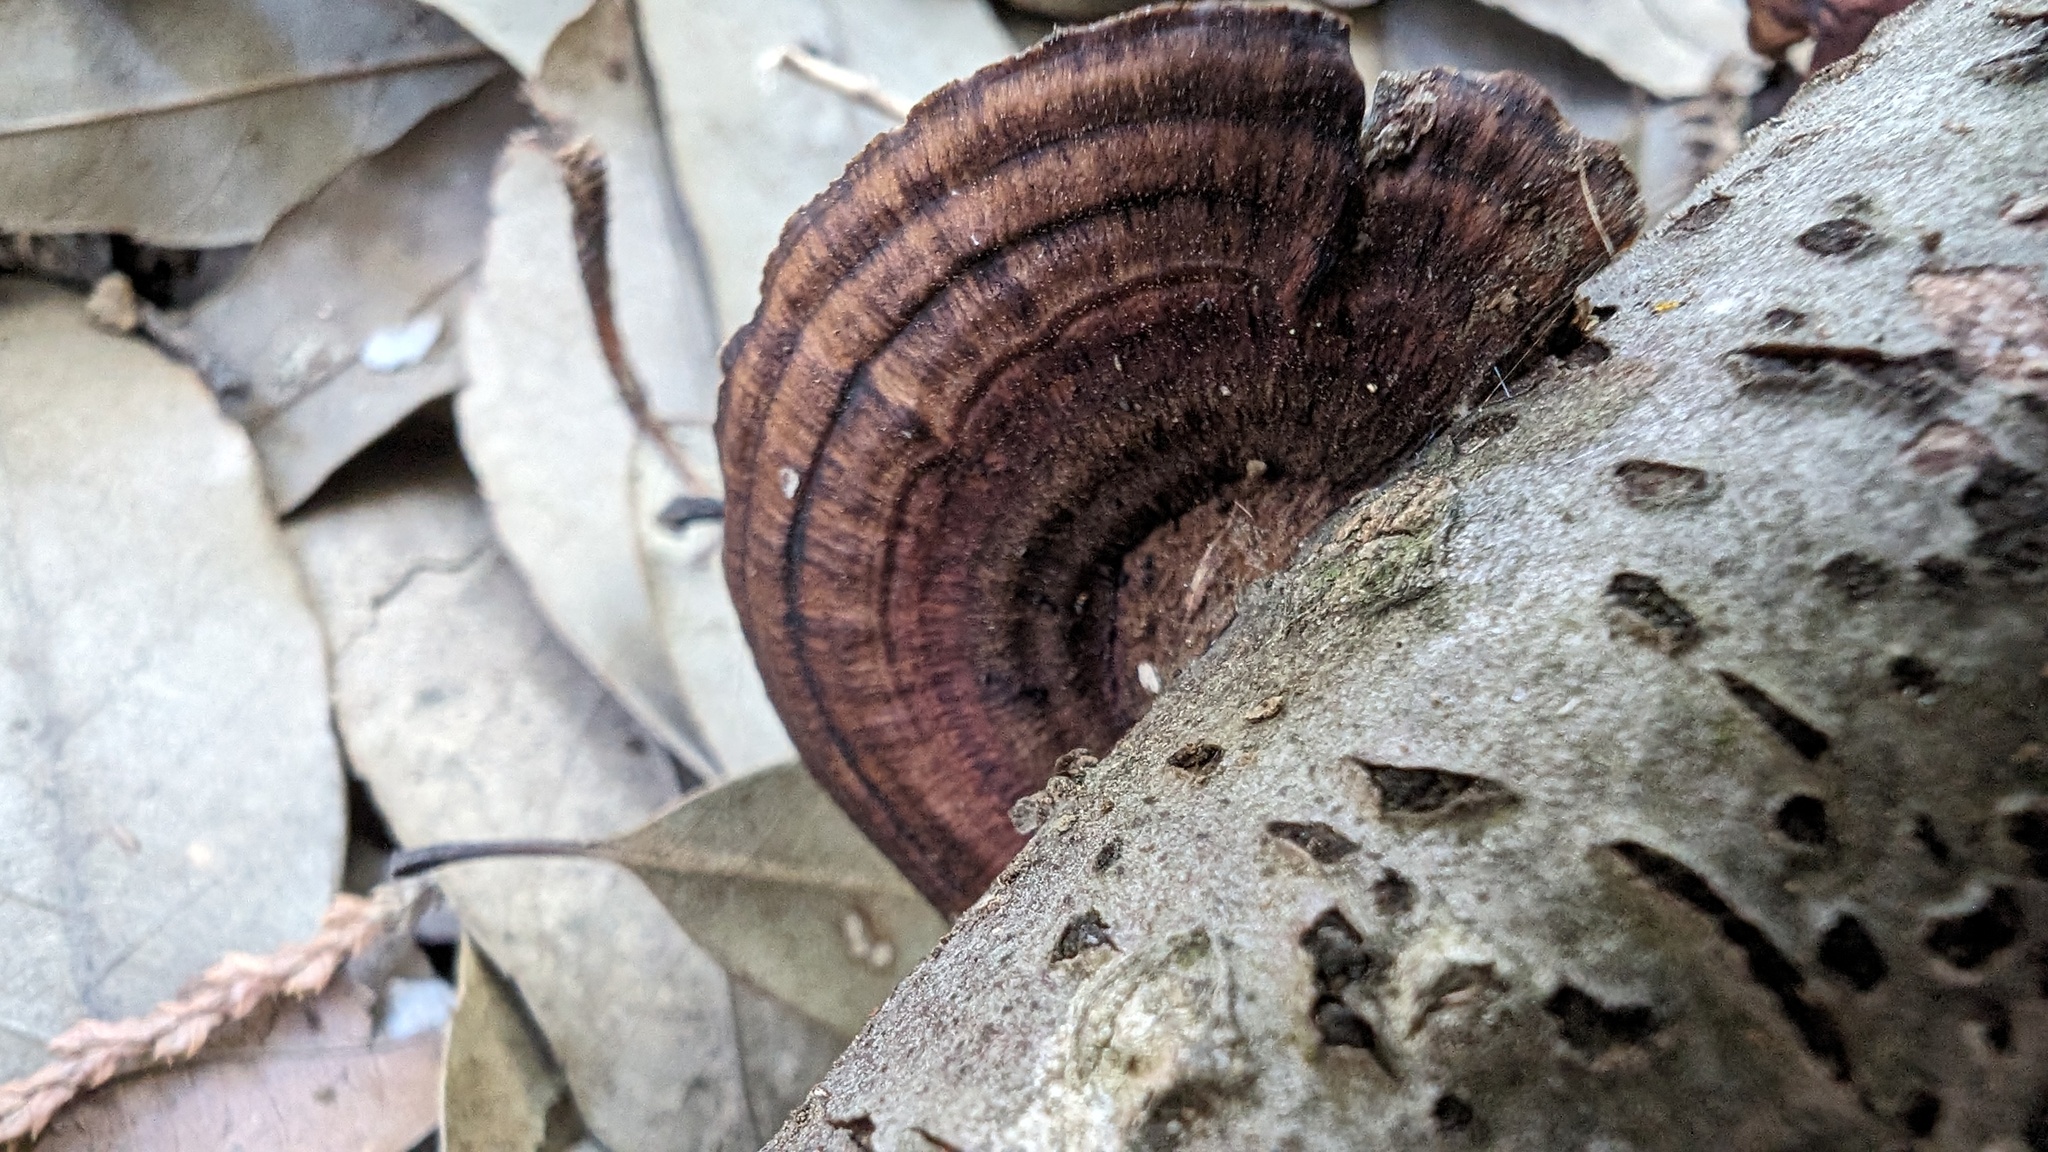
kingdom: Fungi
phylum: Basidiomycota
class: Agaricomycetes
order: Polyporales
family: Polyporaceae
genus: Daedaleopsis
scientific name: Daedaleopsis tricolor
